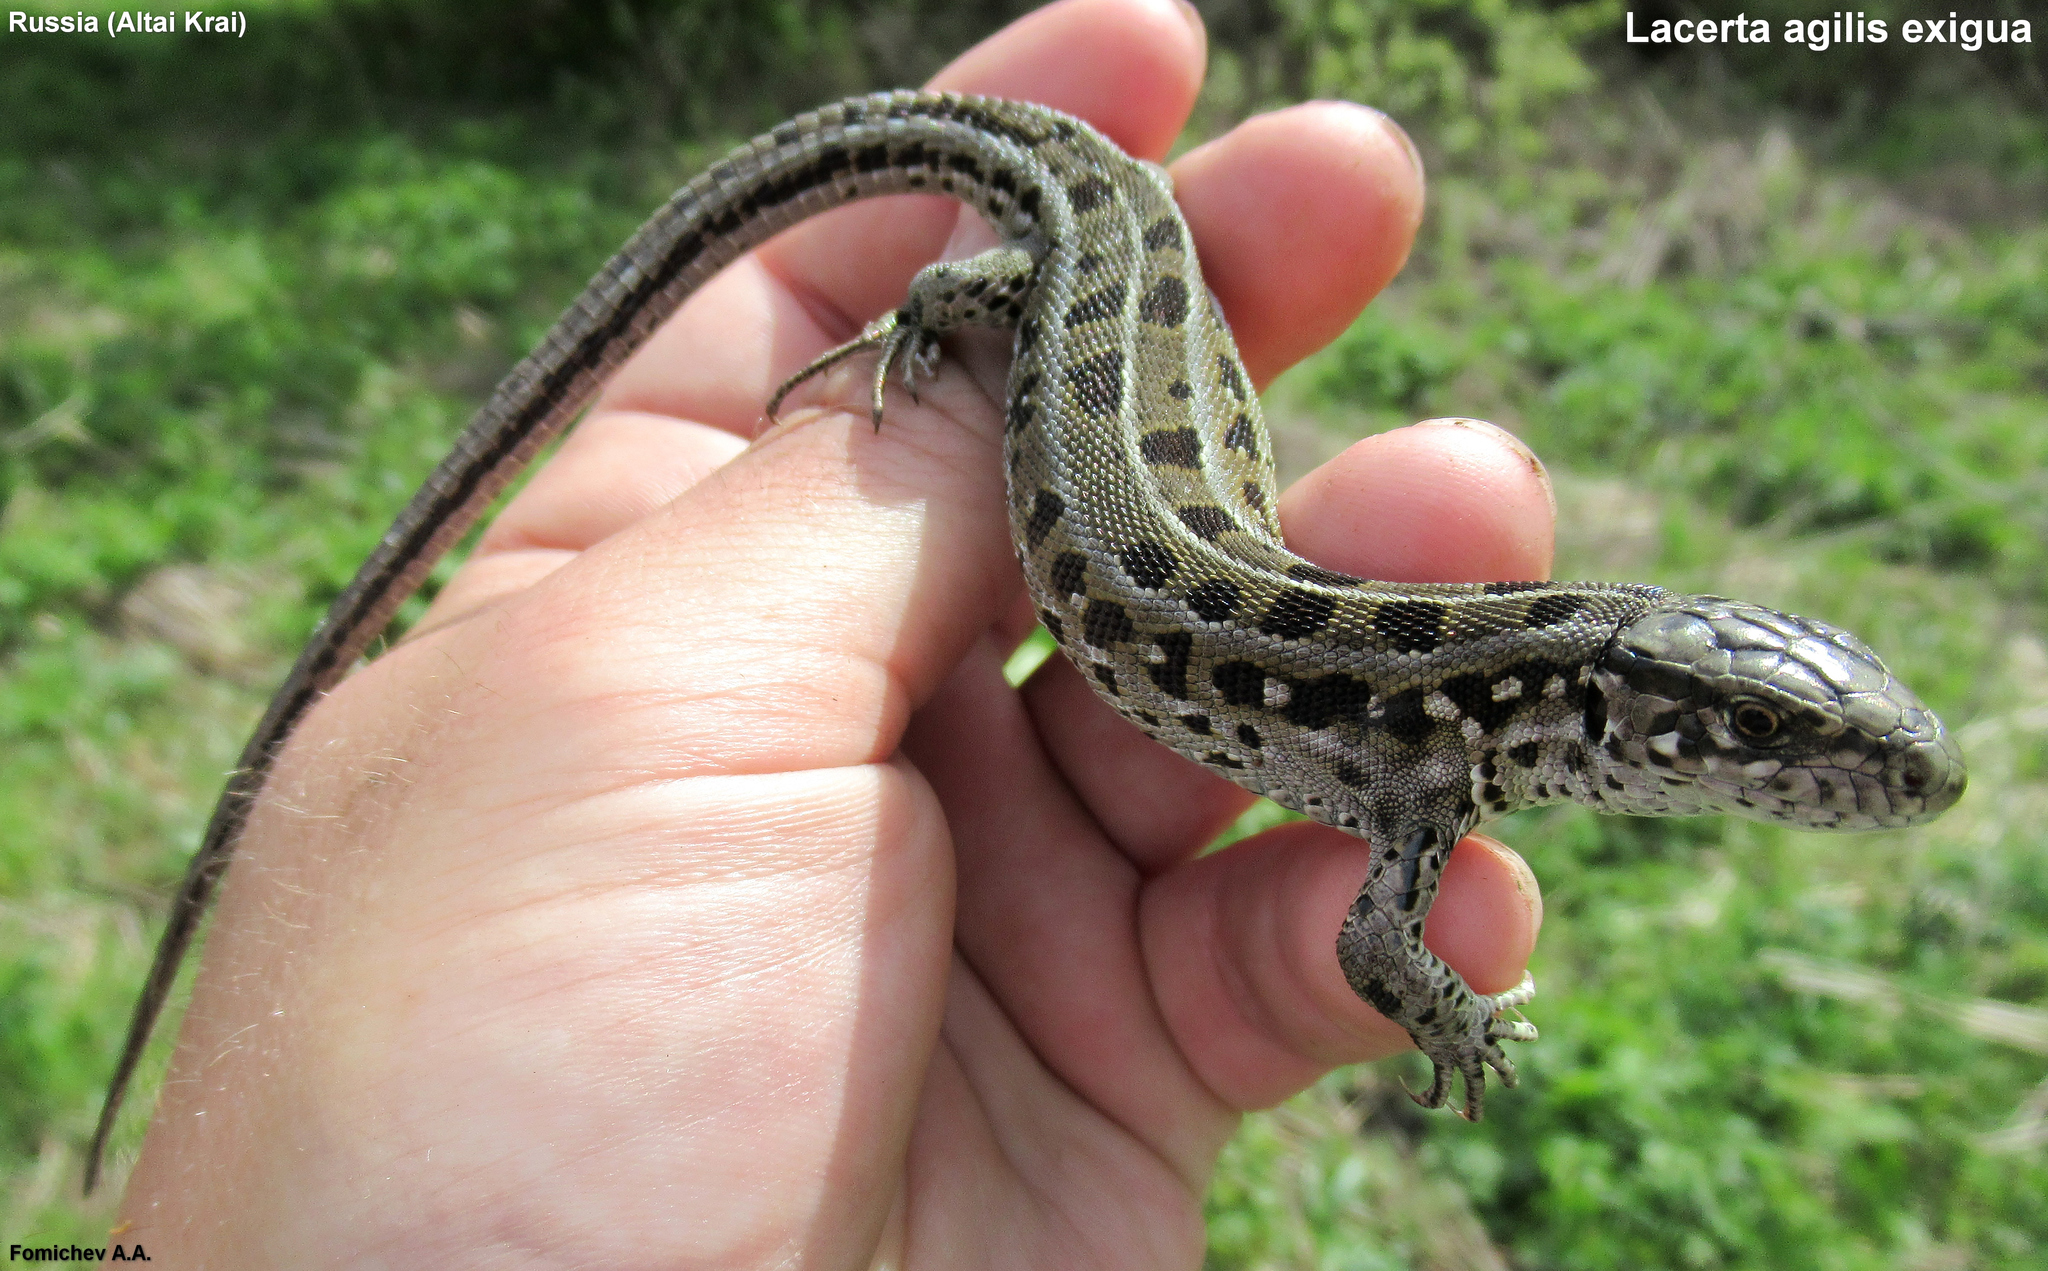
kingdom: Animalia
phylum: Chordata
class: Squamata
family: Lacertidae
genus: Lacerta
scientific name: Lacerta agilis
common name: Sand lizard
